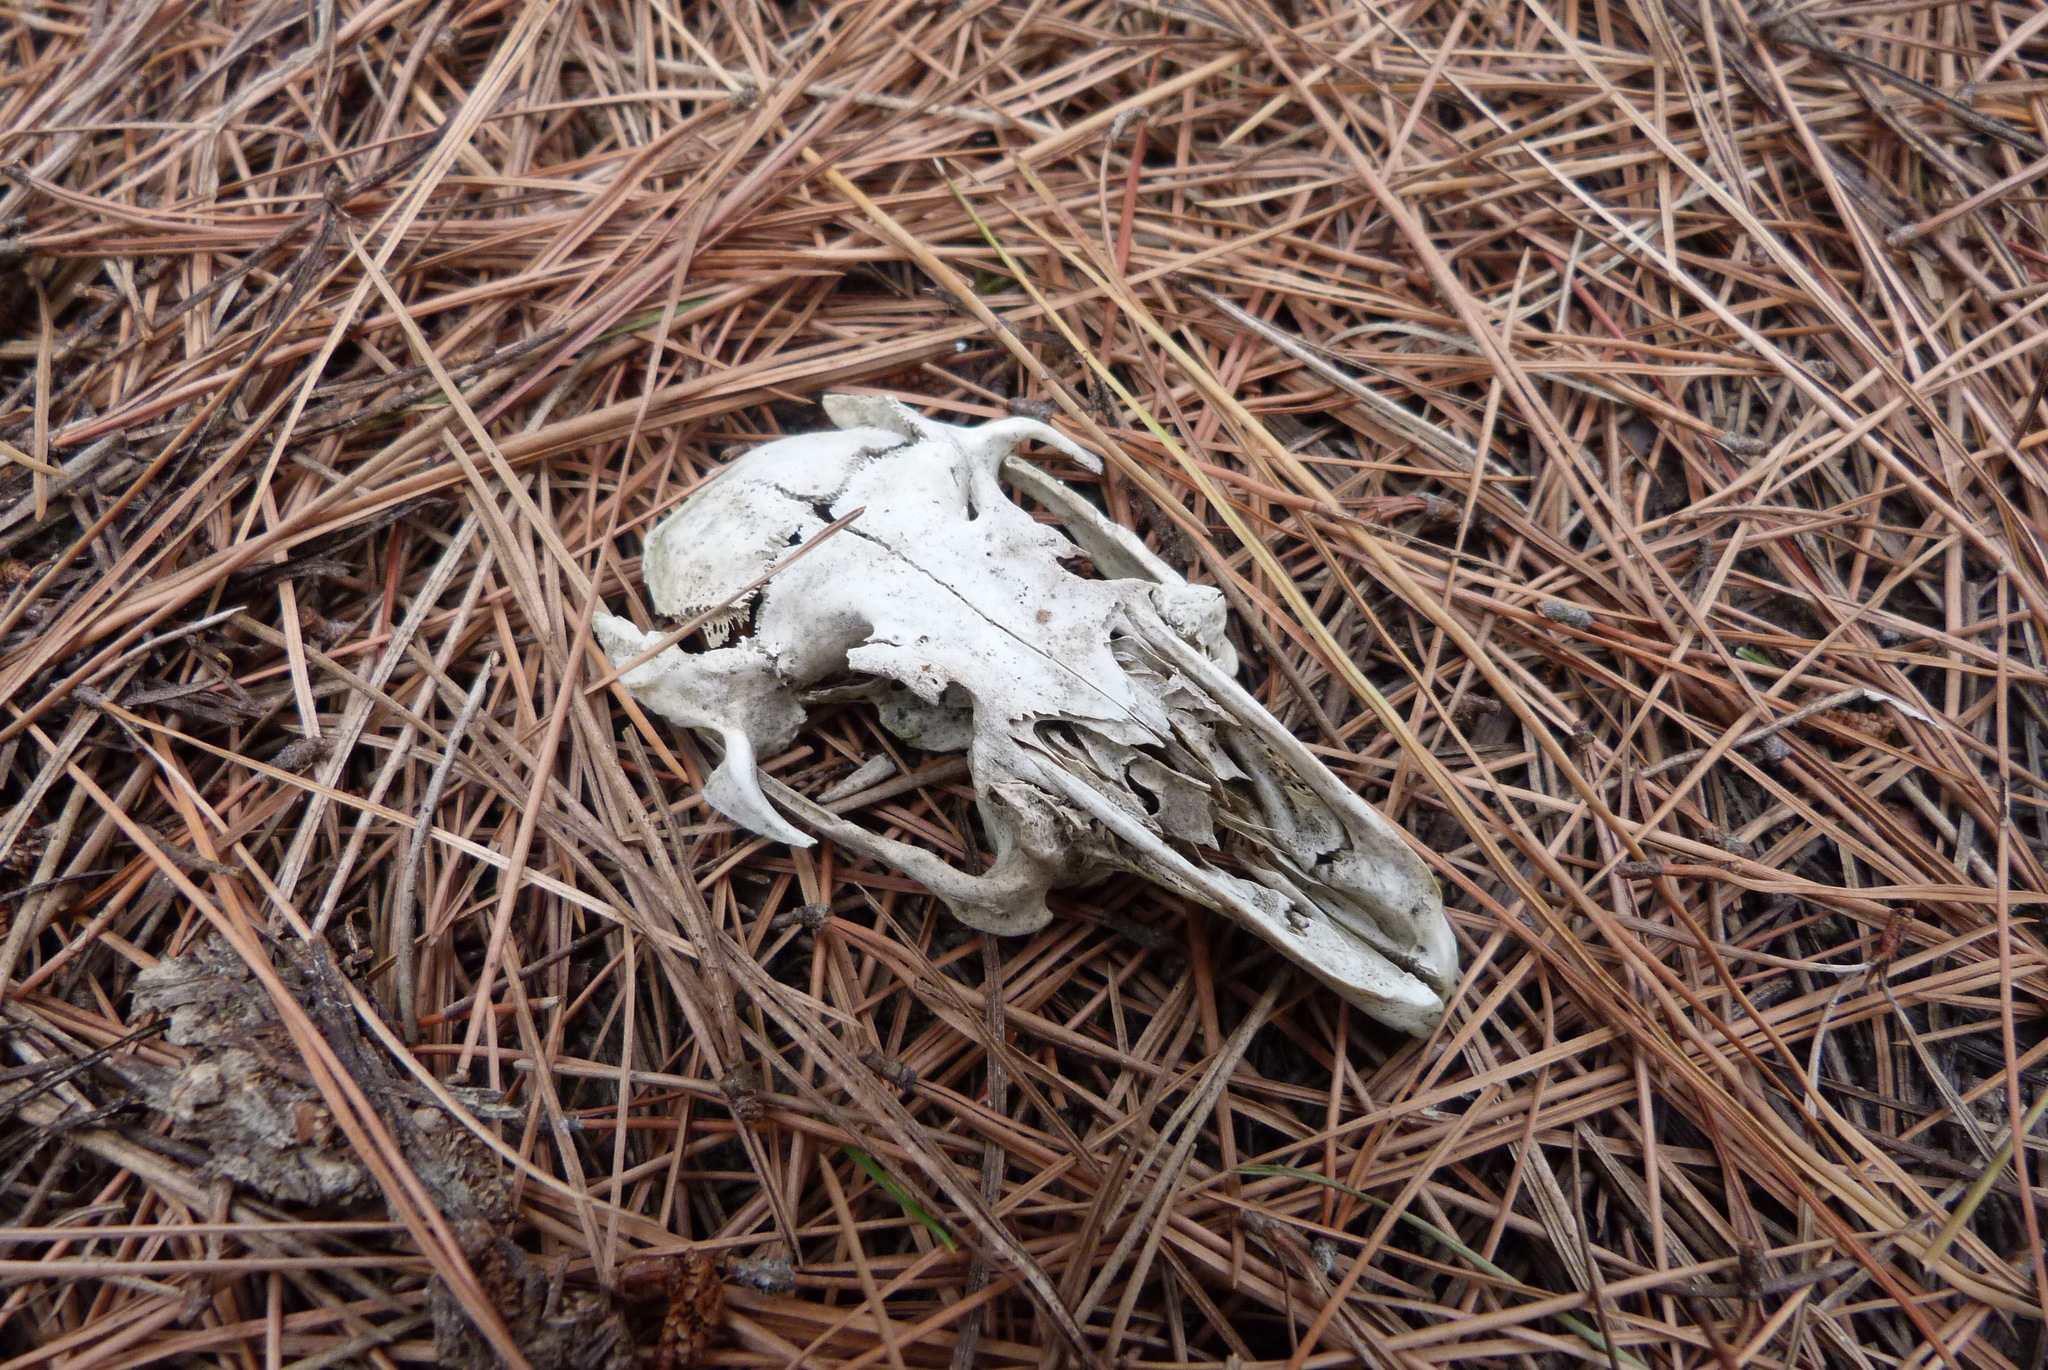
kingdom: Animalia
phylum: Chordata
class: Mammalia
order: Lagomorpha
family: Leporidae
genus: Oryctolagus
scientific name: Oryctolagus cuniculus
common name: European rabbit
